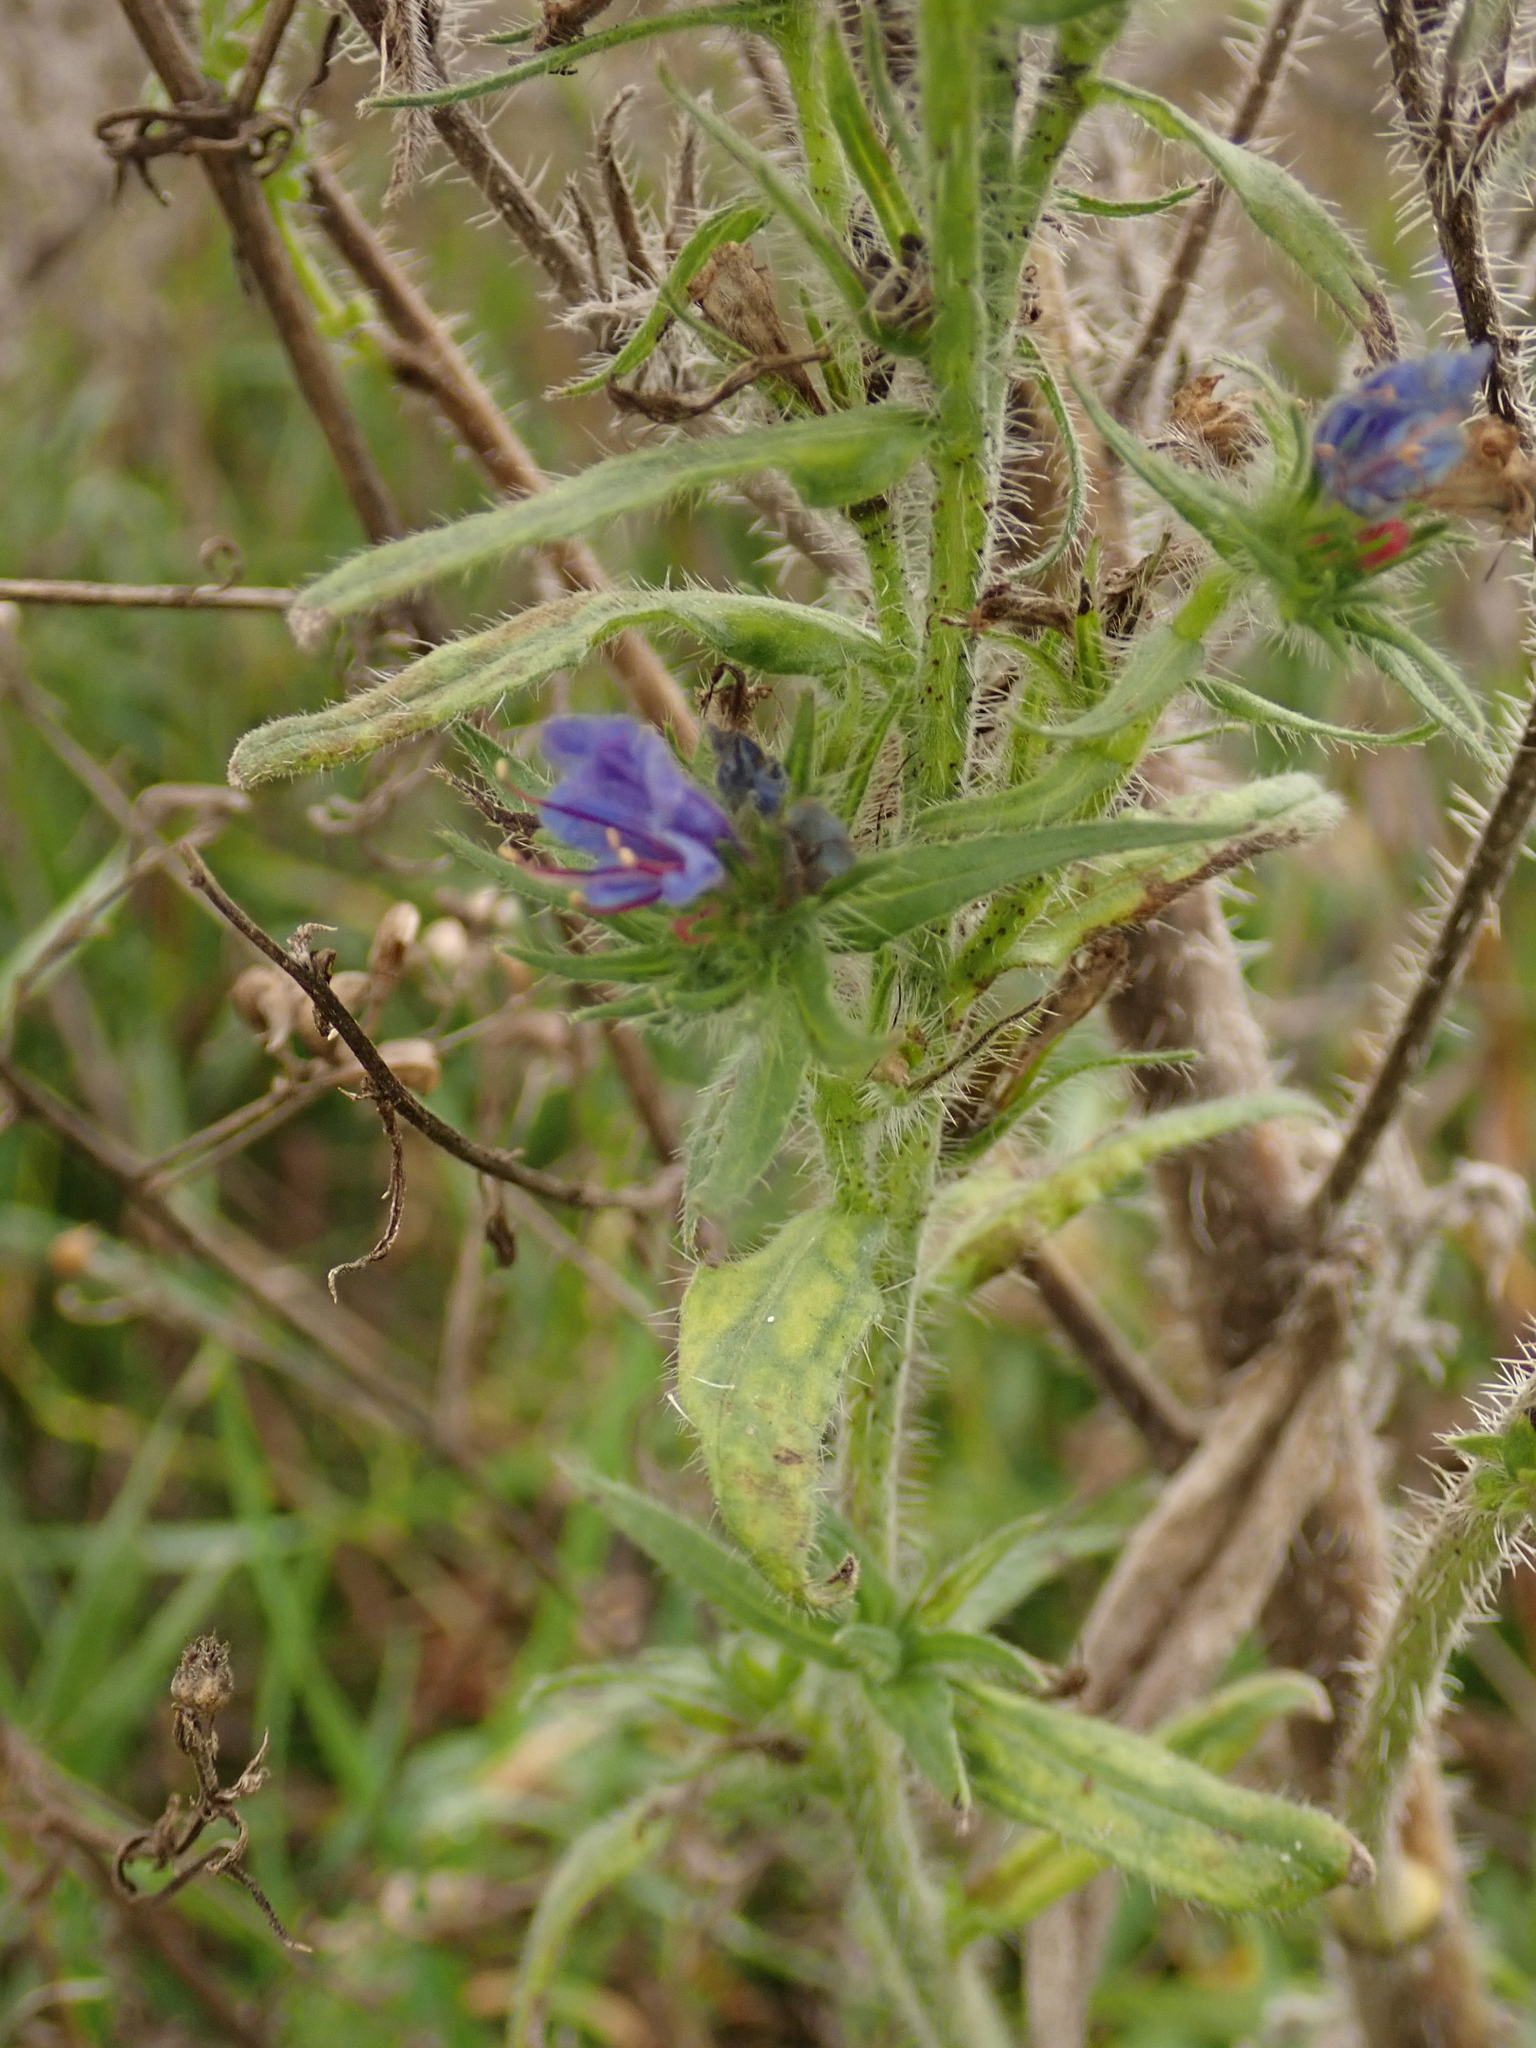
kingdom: Plantae
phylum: Tracheophyta
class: Magnoliopsida
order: Boraginales
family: Boraginaceae
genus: Echium
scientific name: Echium vulgare
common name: Common viper's bugloss
